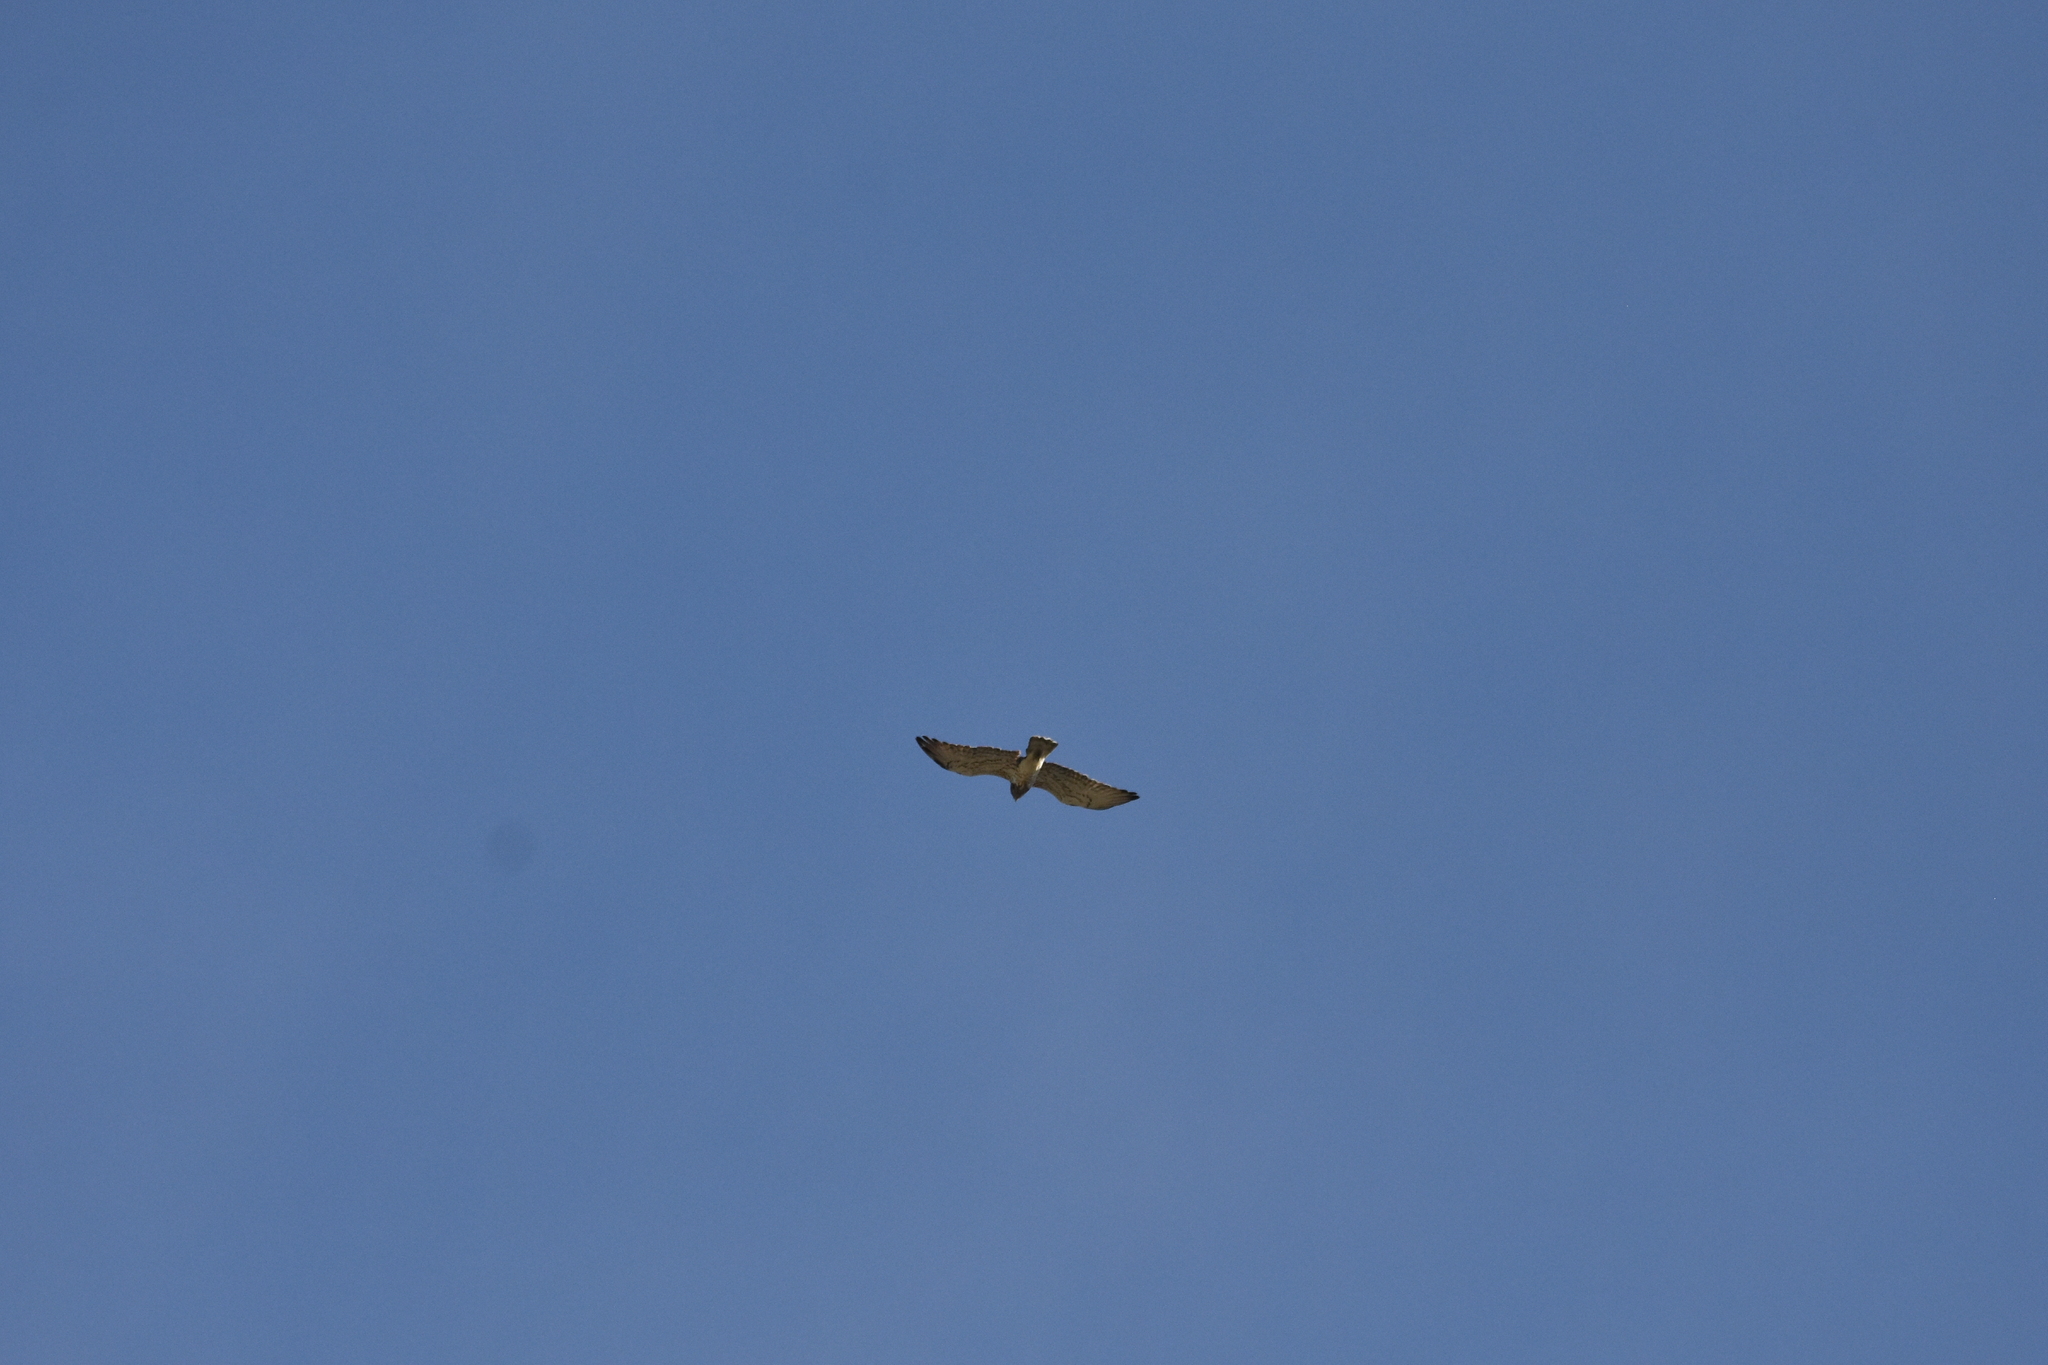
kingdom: Animalia
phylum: Chordata
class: Aves
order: Accipitriformes
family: Accipitridae
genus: Circaetus
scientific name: Circaetus gallicus
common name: Short-toed snake eagle
